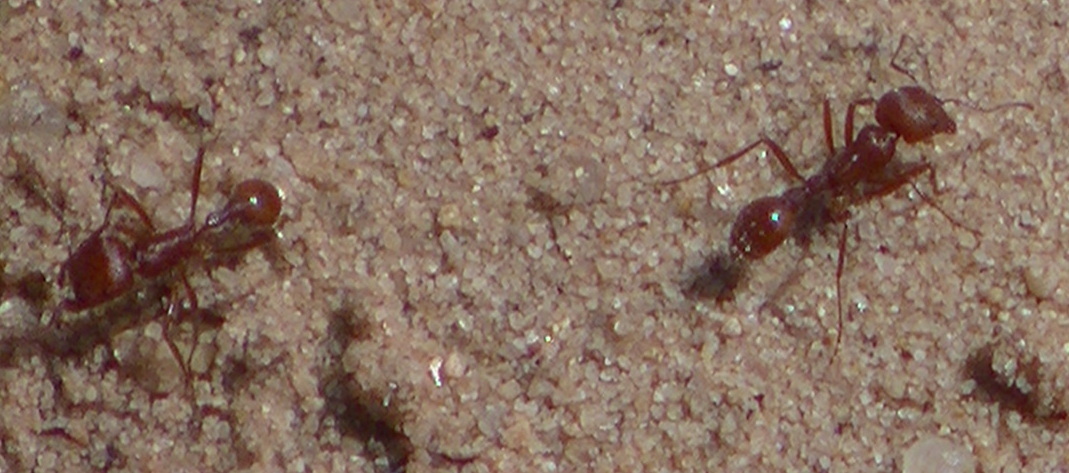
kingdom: Animalia
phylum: Arthropoda
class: Insecta
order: Hymenoptera
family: Formicidae
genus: Pogonomyrmex
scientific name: Pogonomyrmex barbatus
